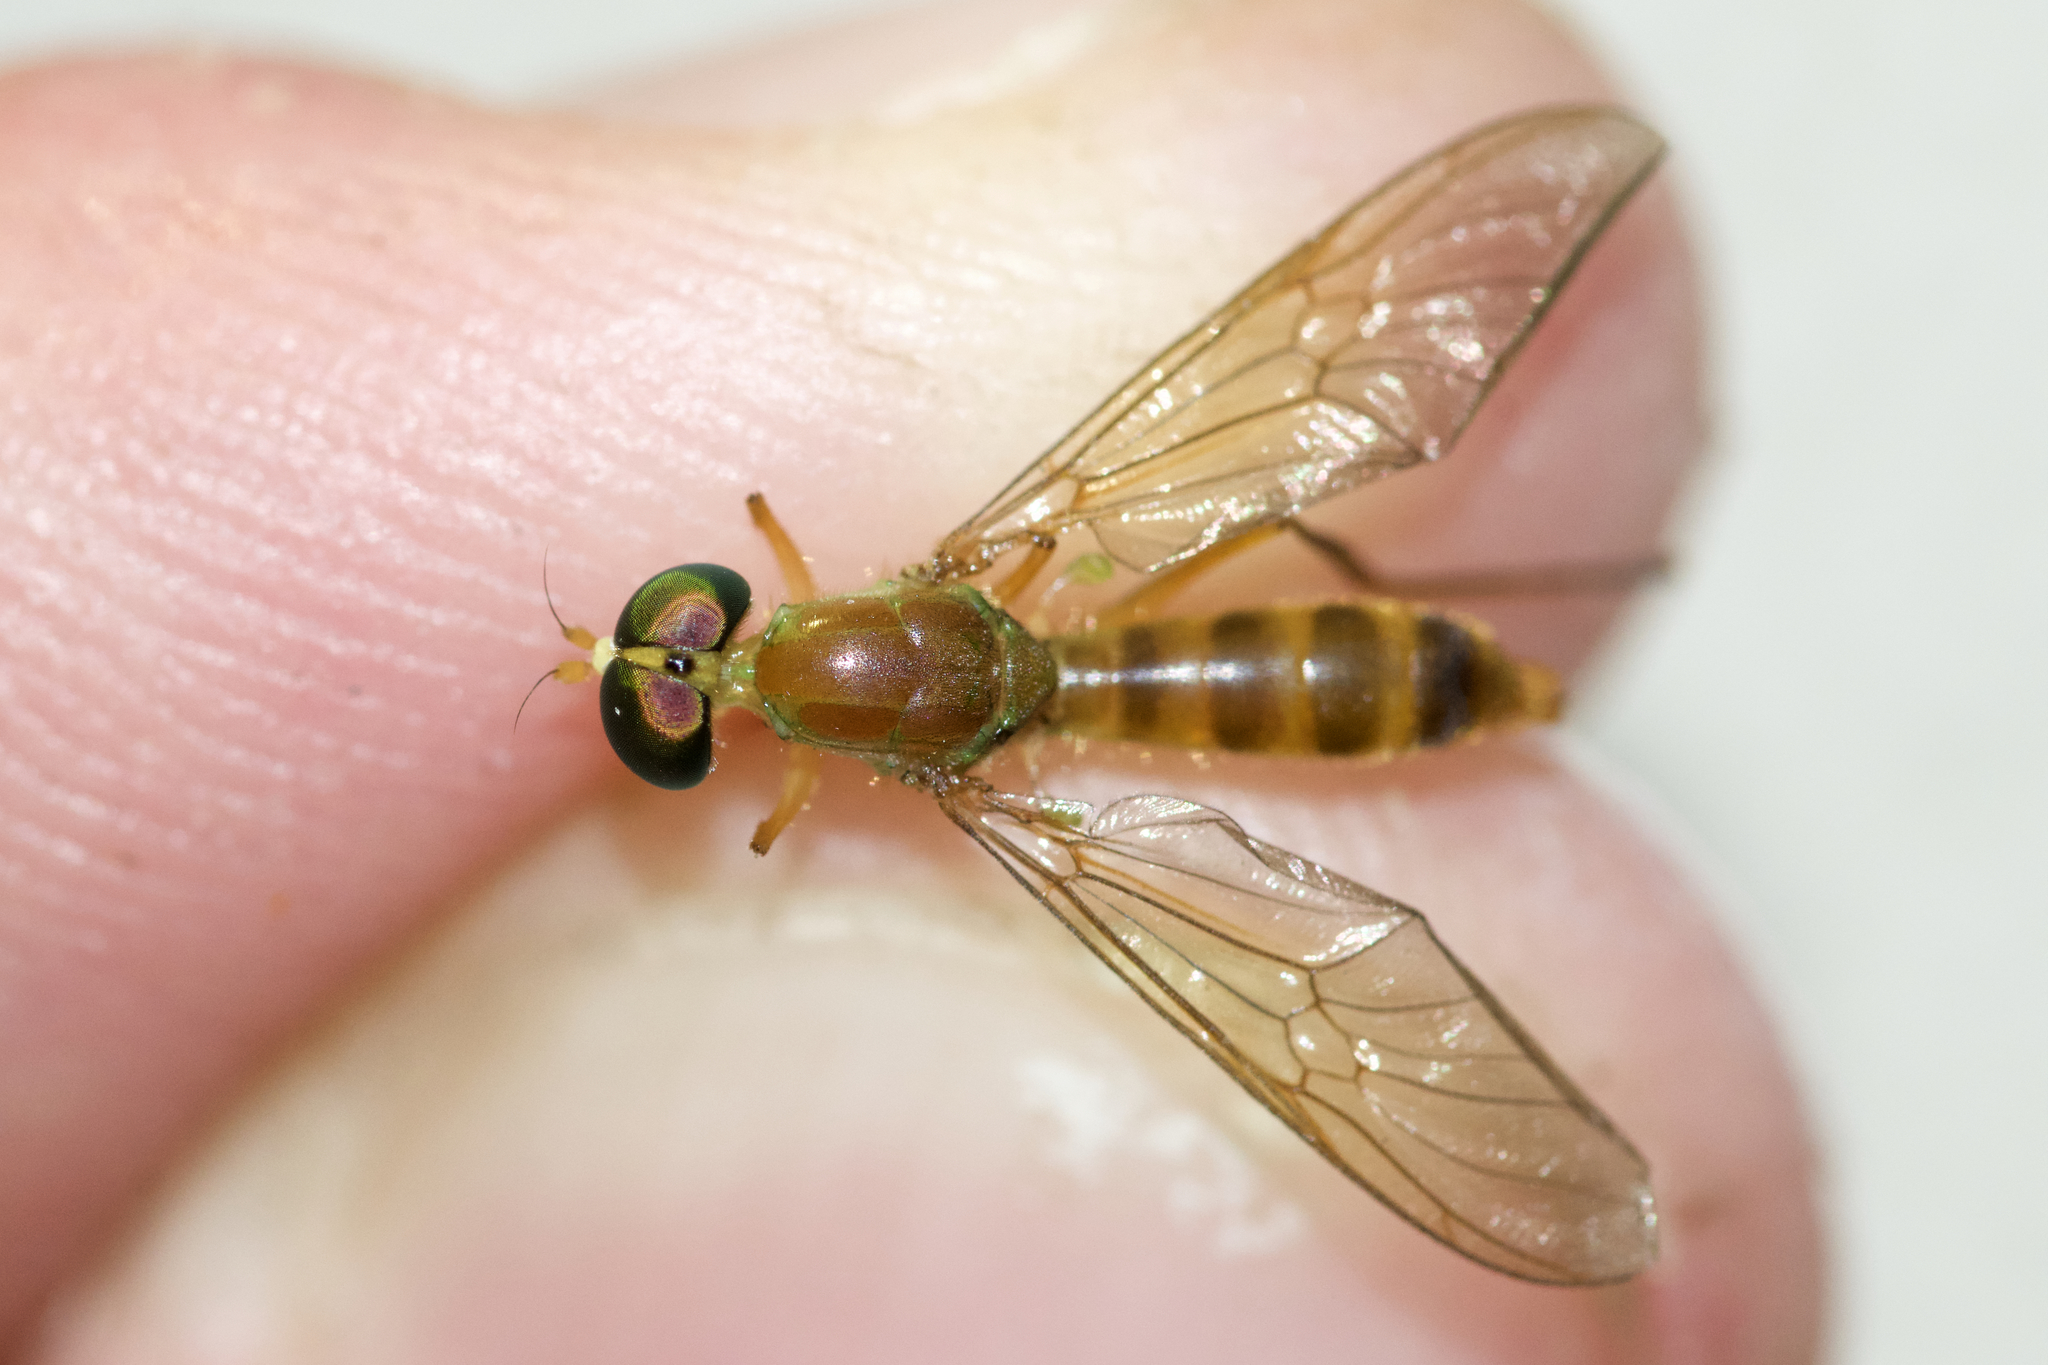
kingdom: Animalia
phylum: Arthropoda
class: Insecta
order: Diptera
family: Stratiomyidae
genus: Ptecticus
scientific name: Ptecticus trivittatus
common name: Compost fly
